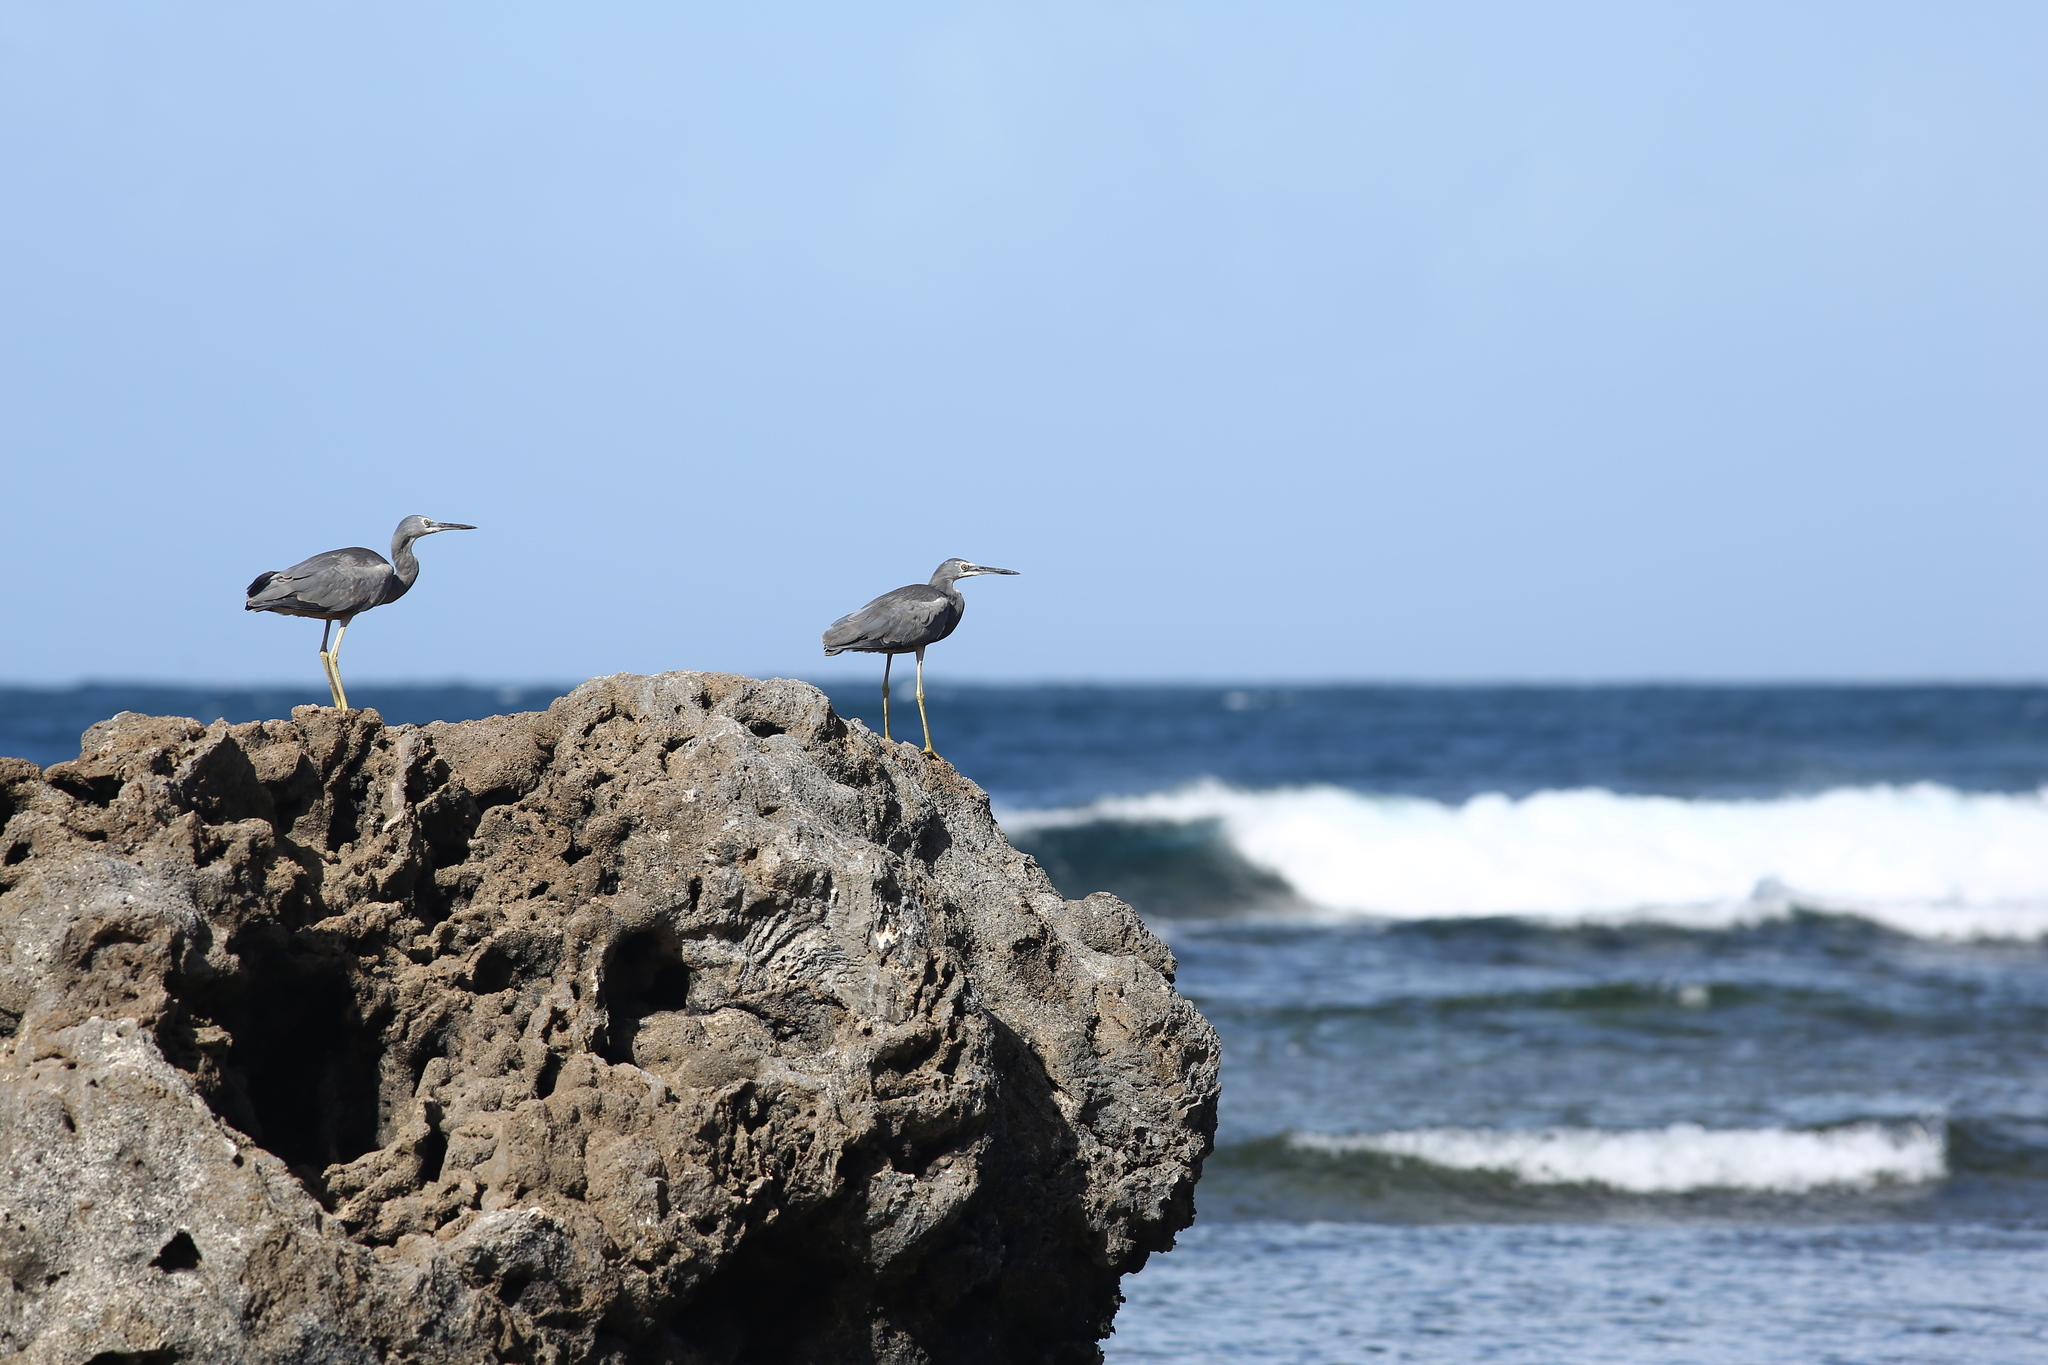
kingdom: Animalia
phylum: Chordata
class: Aves
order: Pelecaniformes
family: Ardeidae
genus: Egretta
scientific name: Egretta novaehollandiae
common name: White-faced heron
